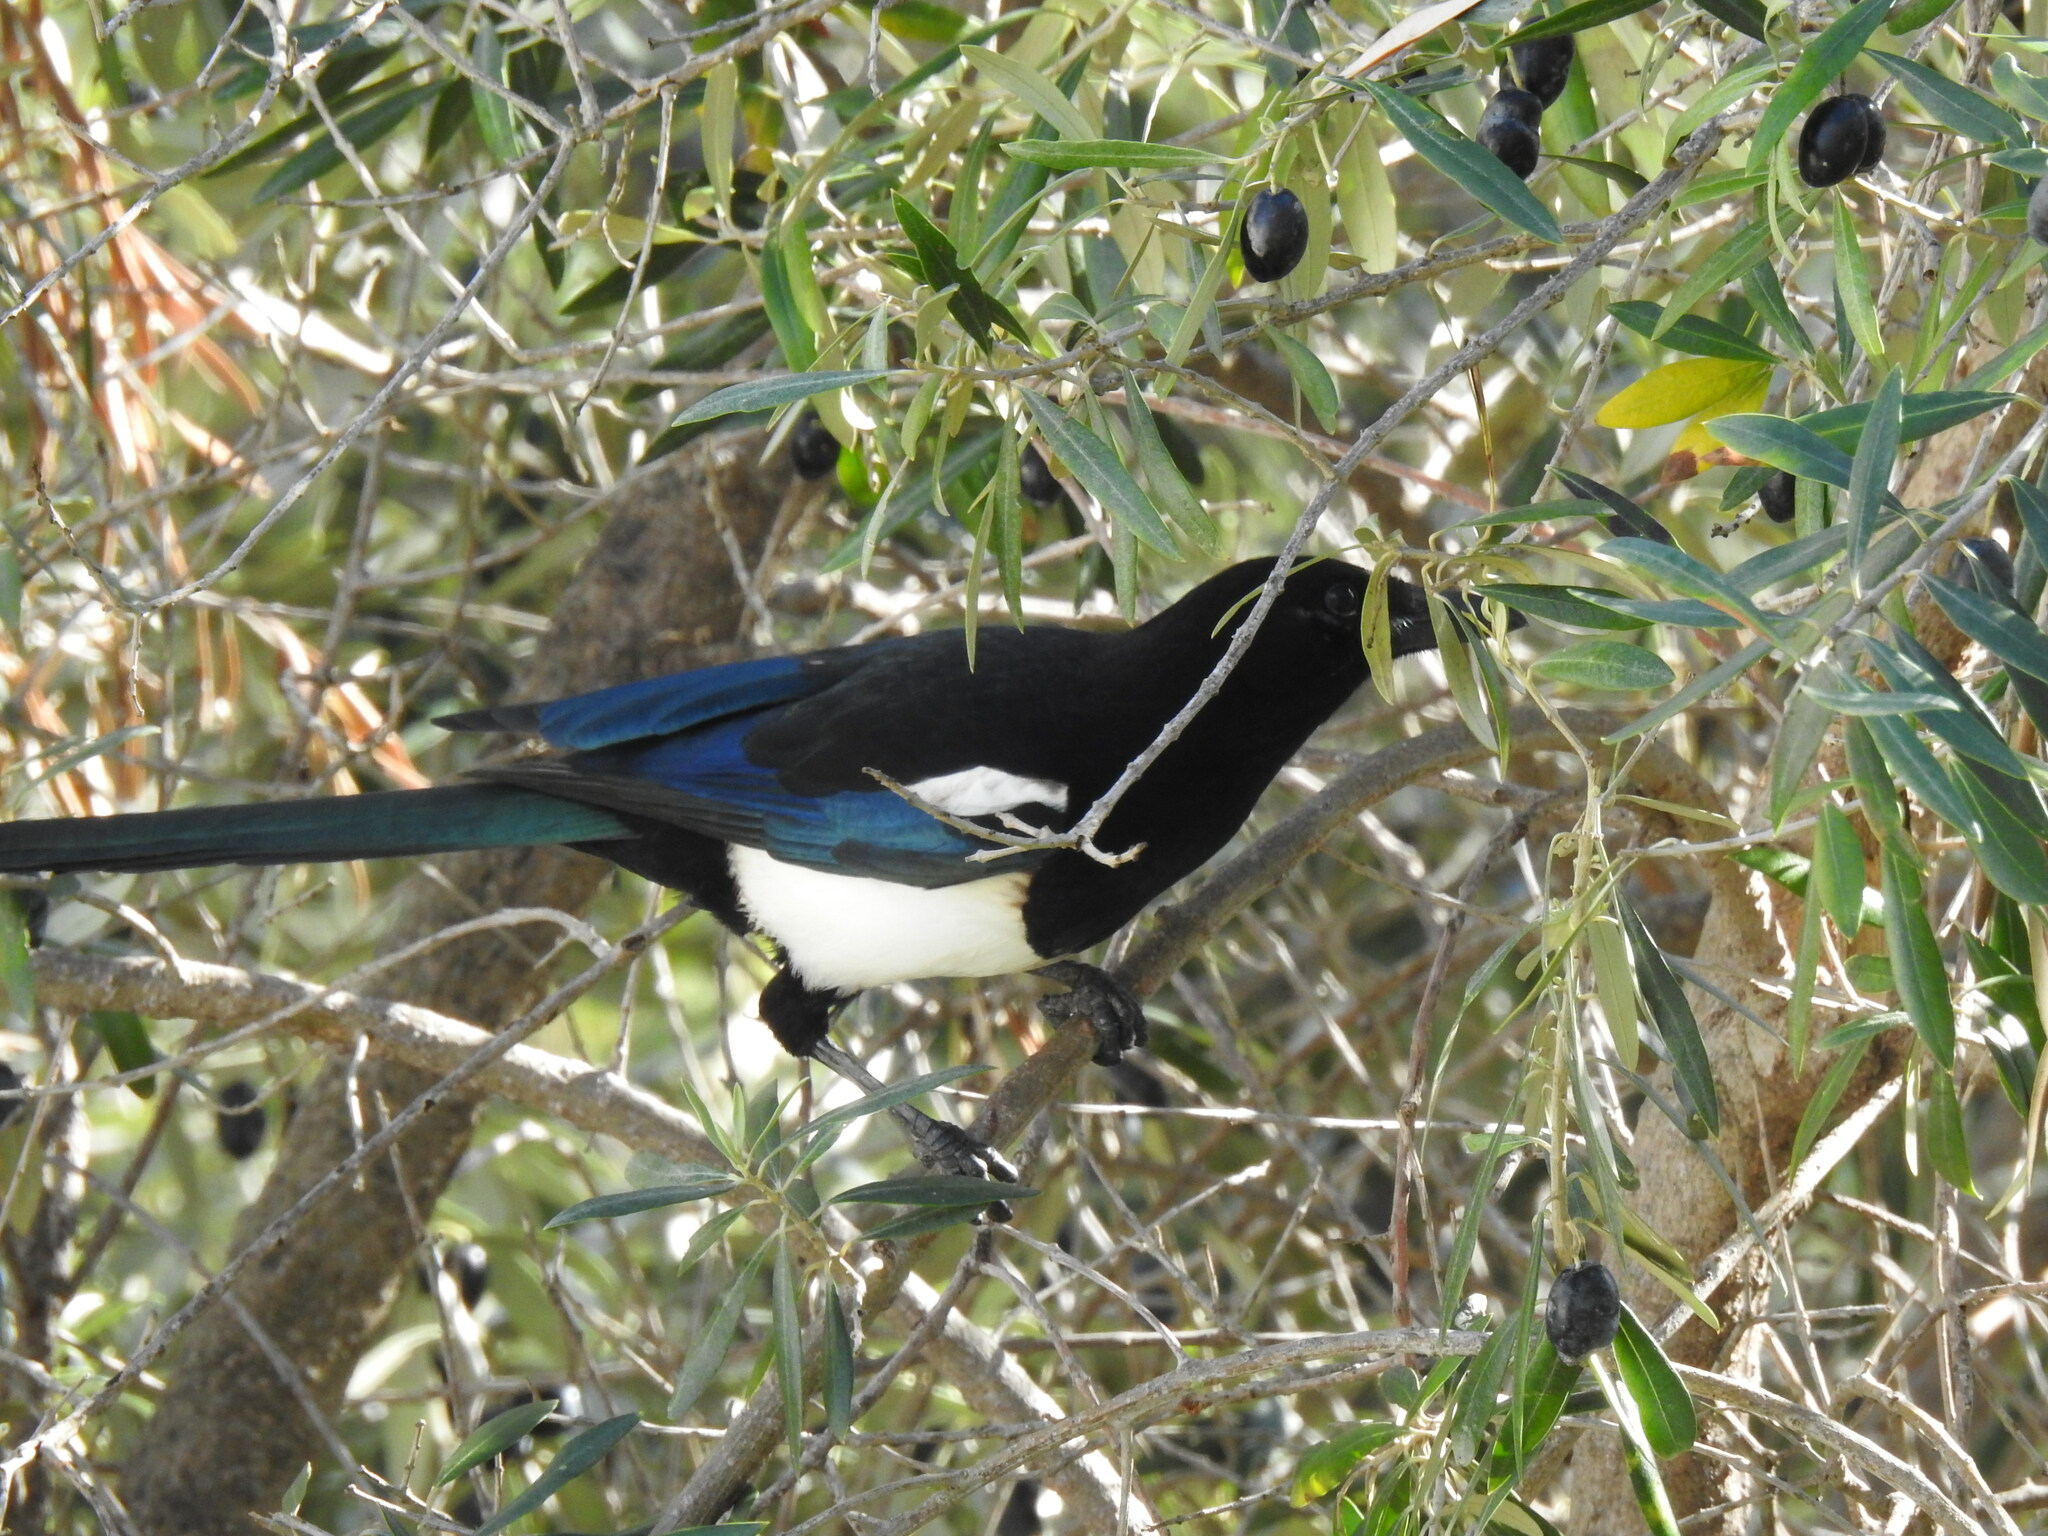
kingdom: Animalia
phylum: Chordata
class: Aves
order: Passeriformes
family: Corvidae
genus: Pica
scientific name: Pica pica
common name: Eurasian magpie
